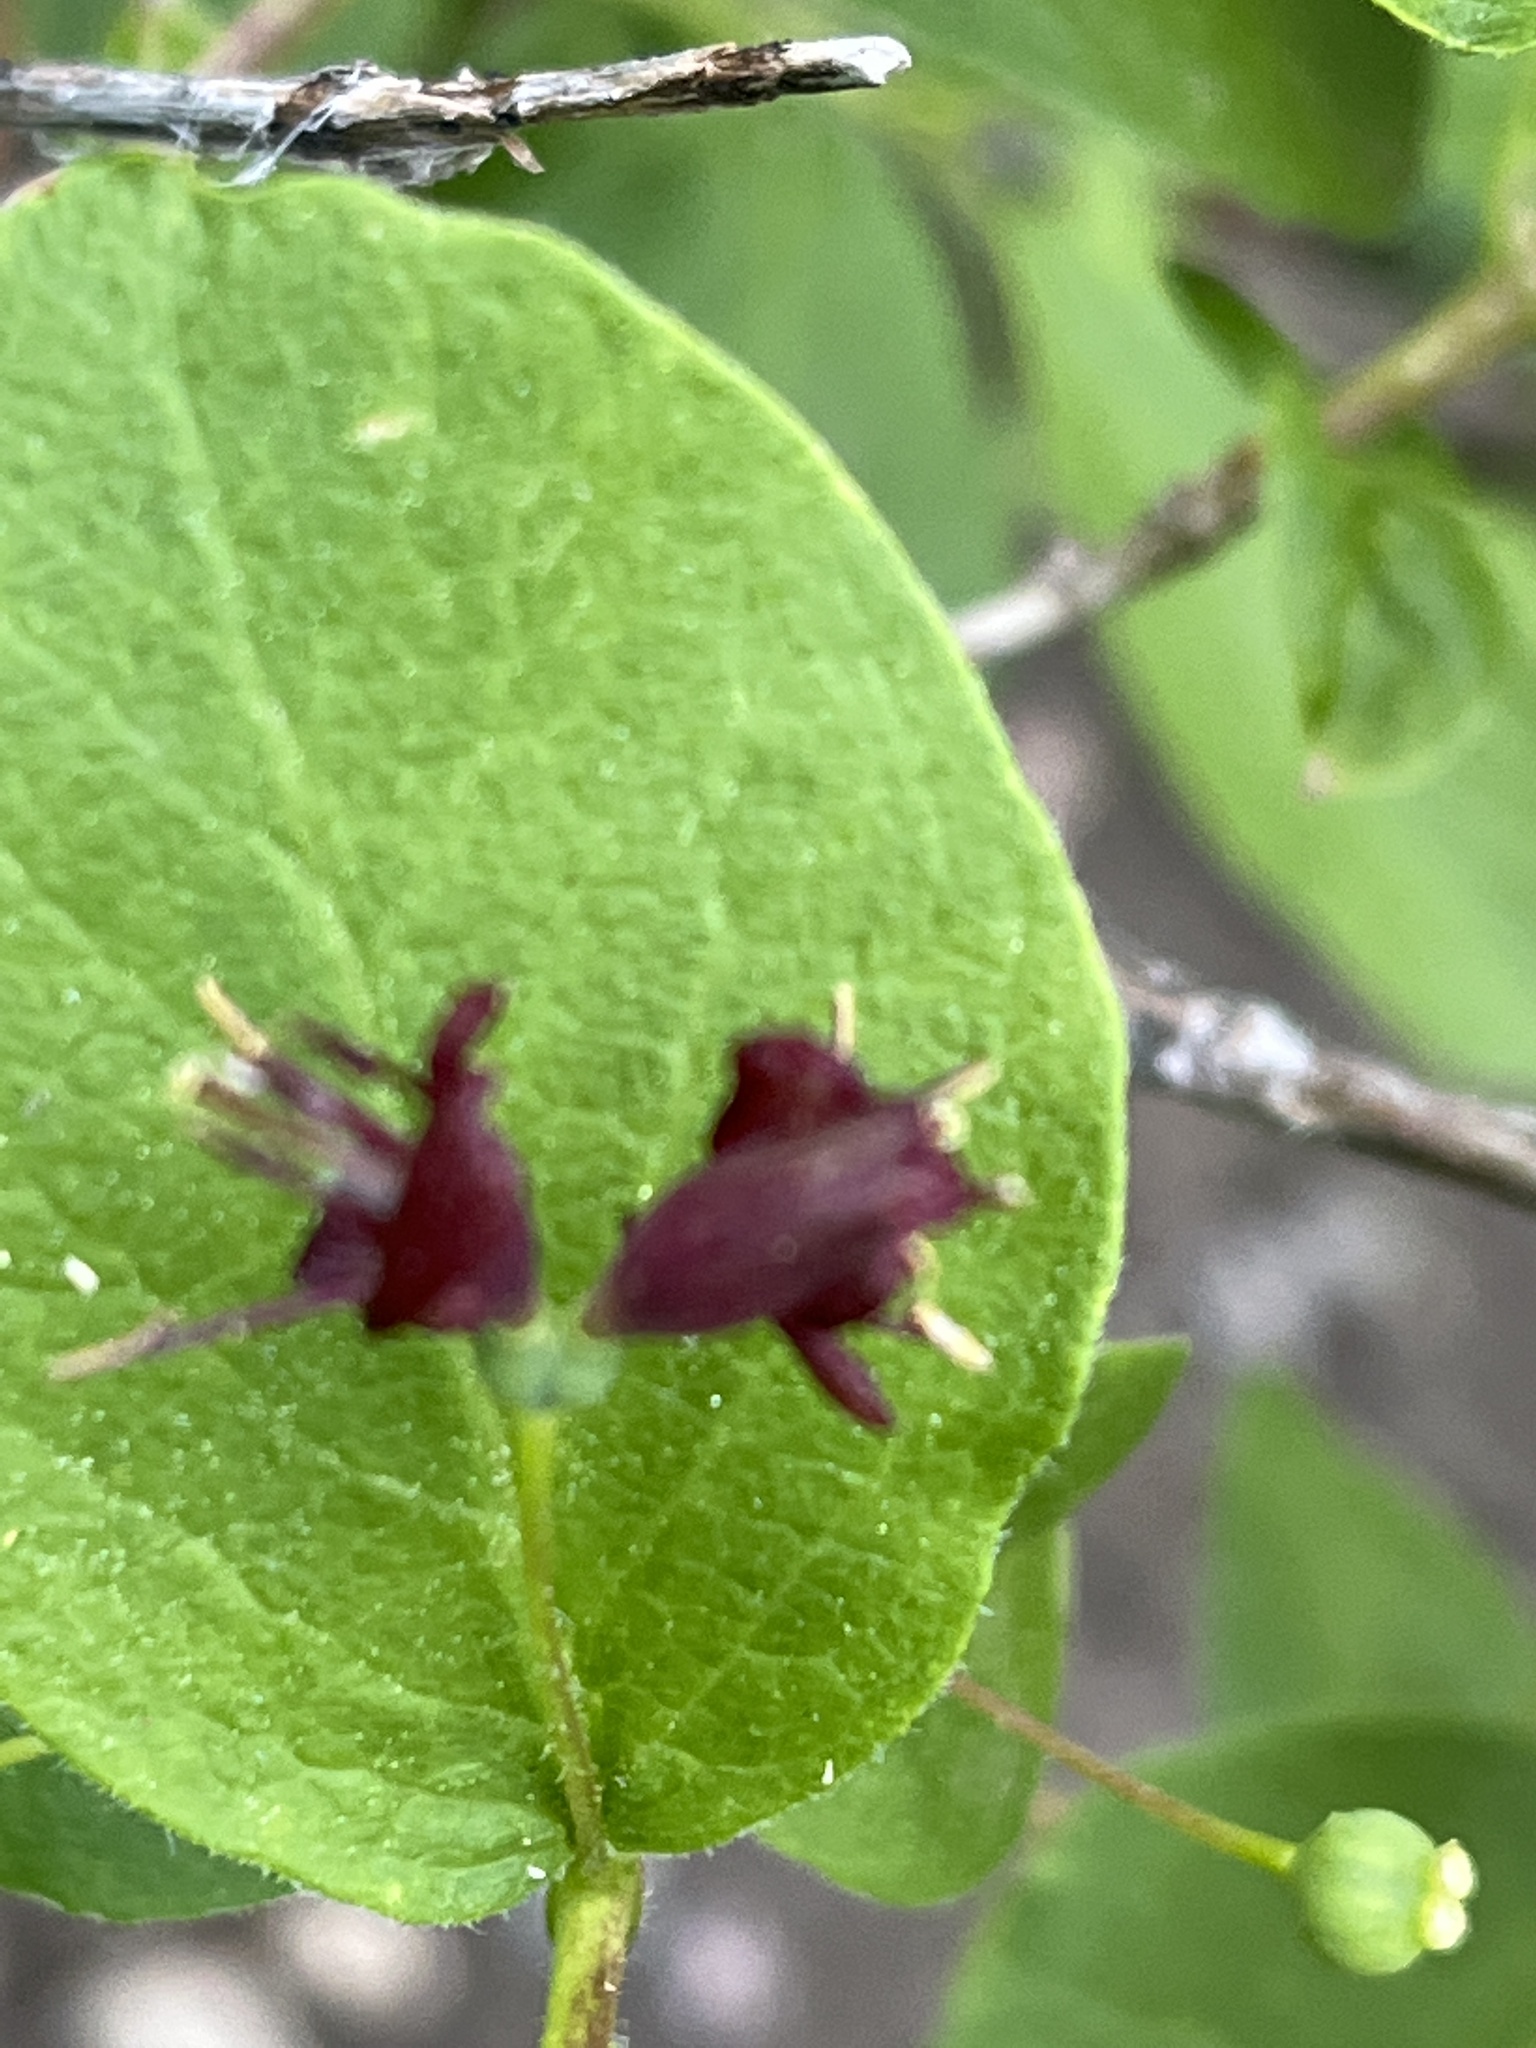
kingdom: Plantae
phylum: Tracheophyta
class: Magnoliopsida
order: Dipsacales
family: Caprifoliaceae
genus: Lonicera
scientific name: Lonicera conjugialis
